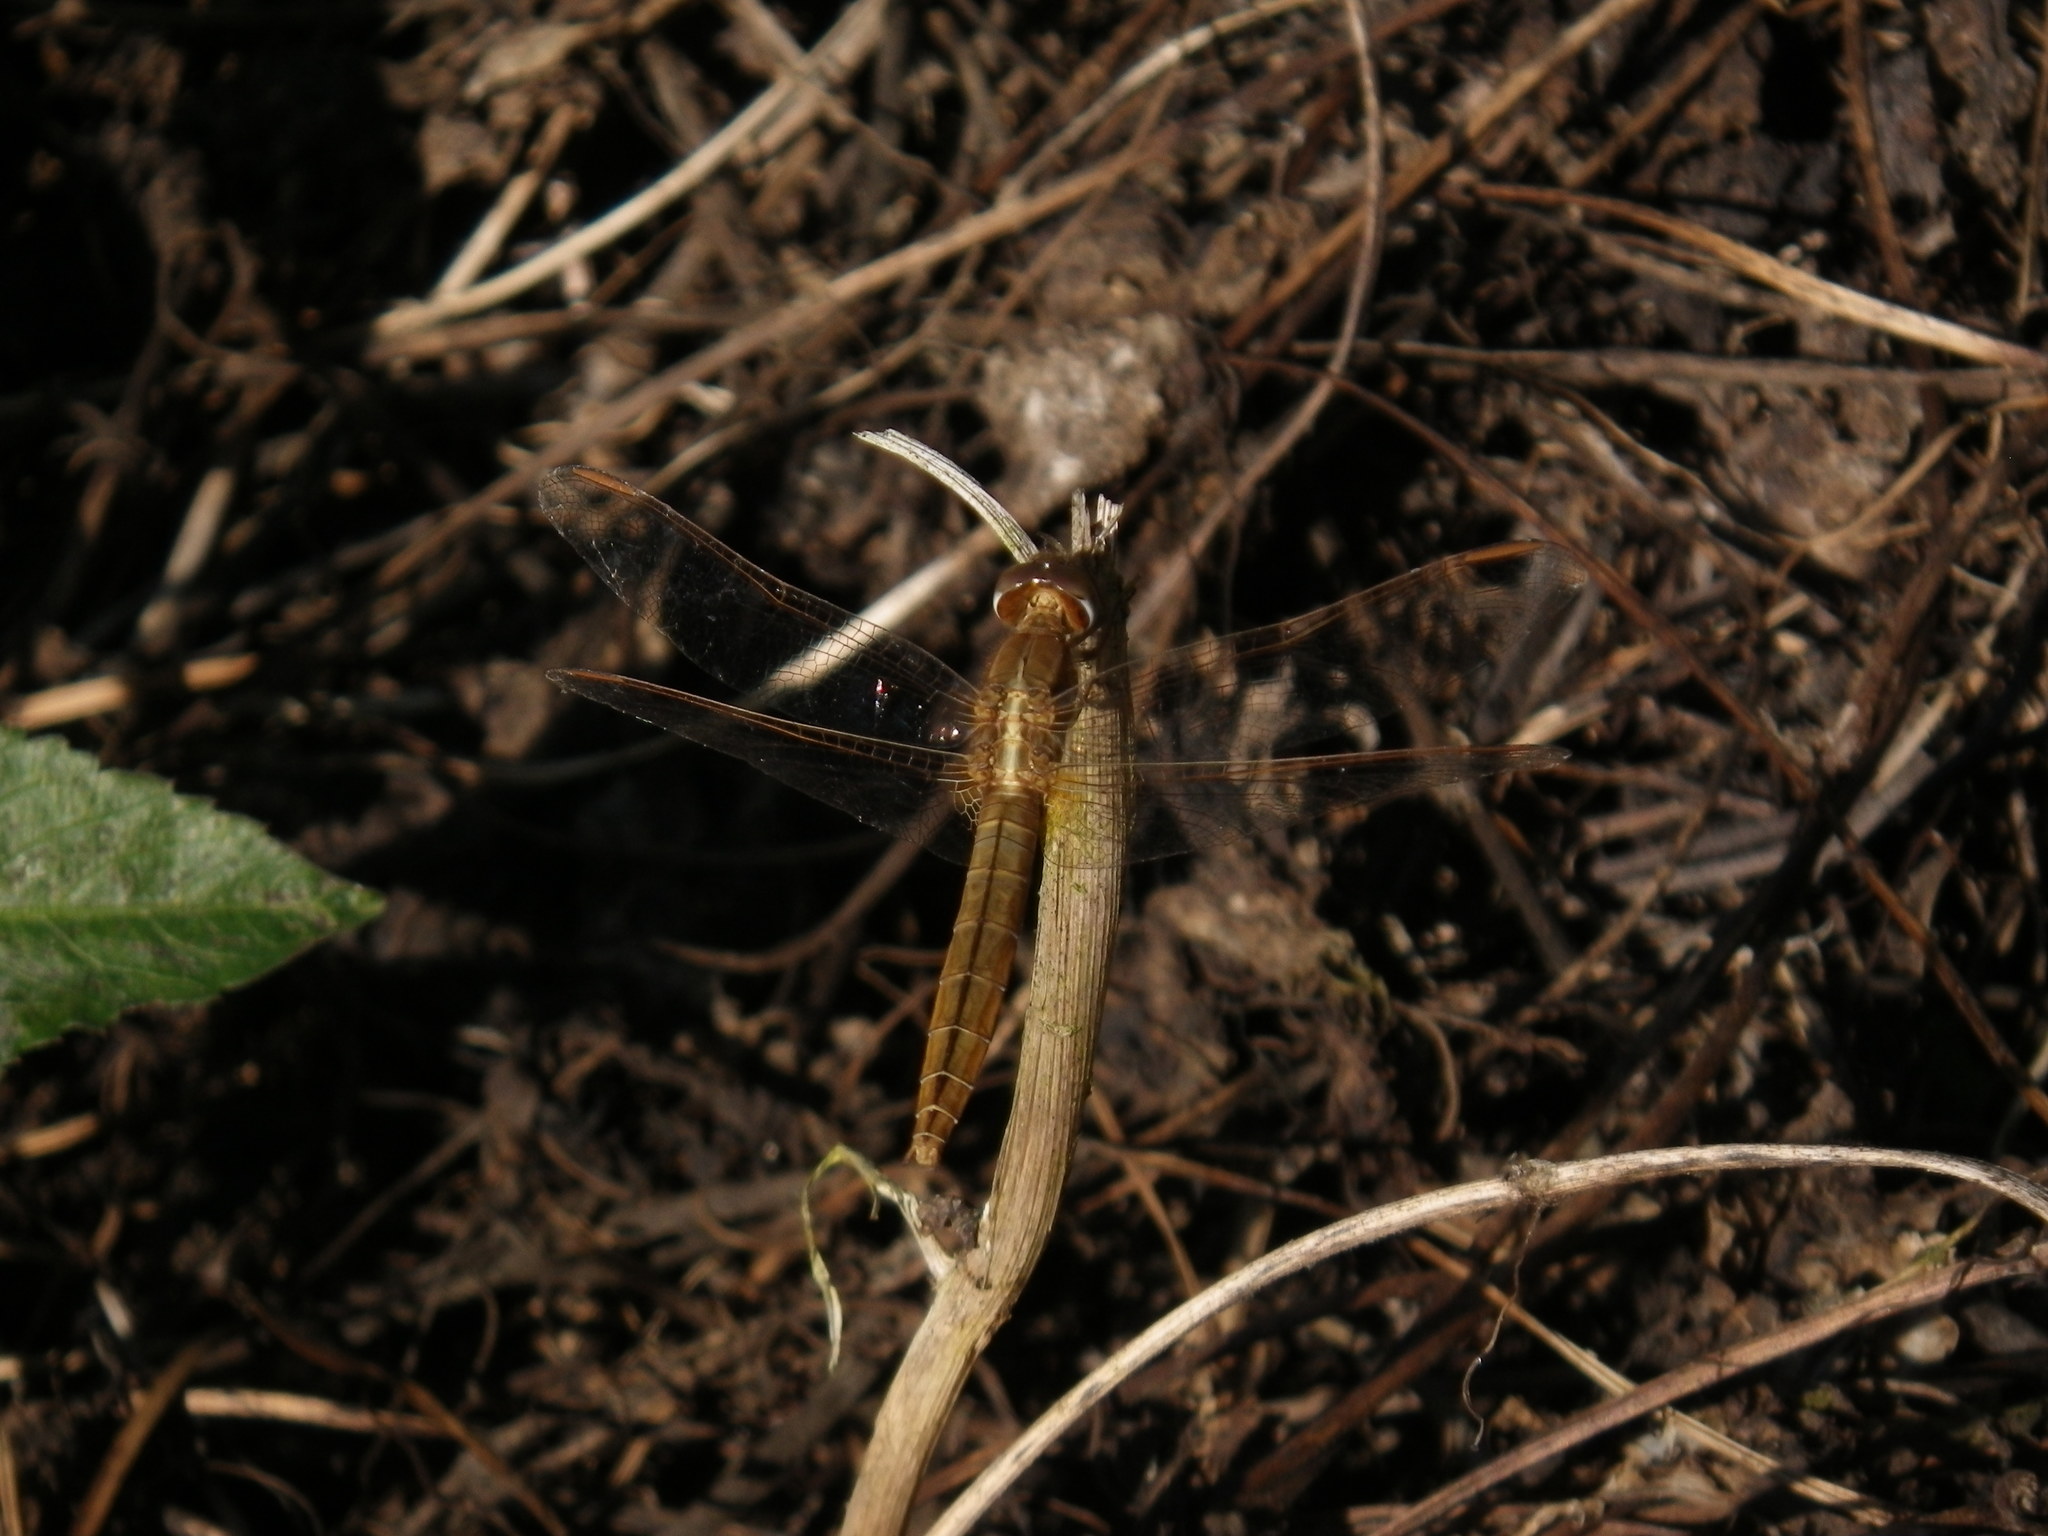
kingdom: Animalia
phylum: Arthropoda
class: Insecta
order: Odonata
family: Libellulidae
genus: Crocothemis
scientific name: Crocothemis servilia
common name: Scarlet skimmer
